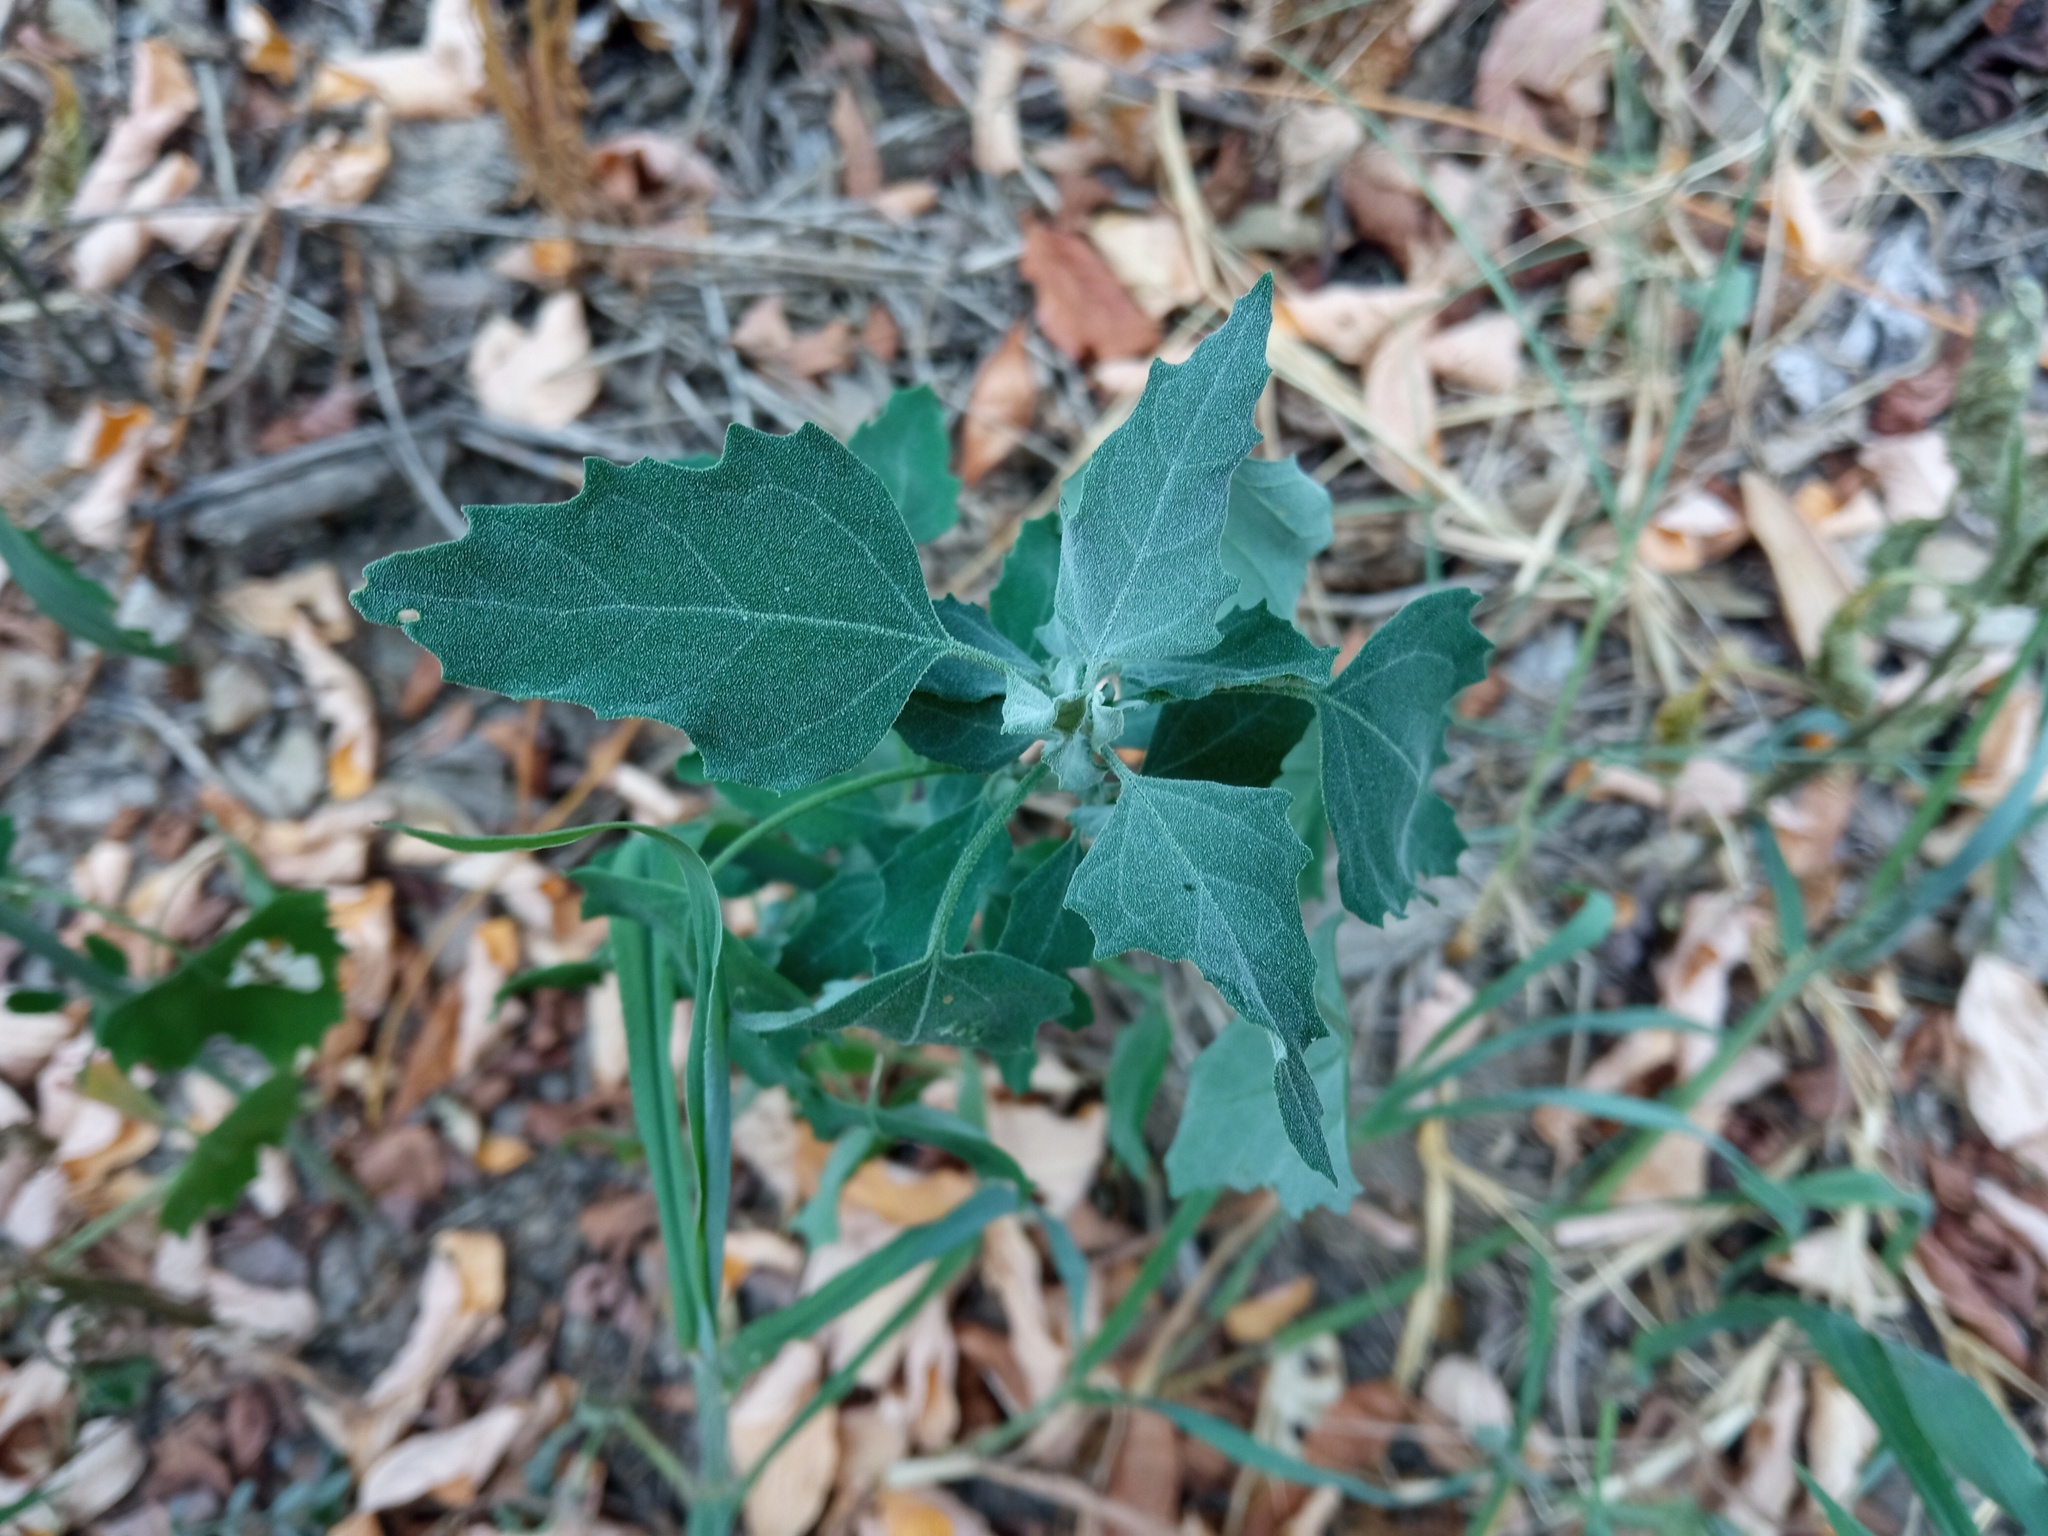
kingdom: Plantae
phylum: Tracheophyta
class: Magnoliopsida
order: Caryophyllales
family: Amaranthaceae
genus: Chenopodium
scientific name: Chenopodium album
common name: Fat-hen
